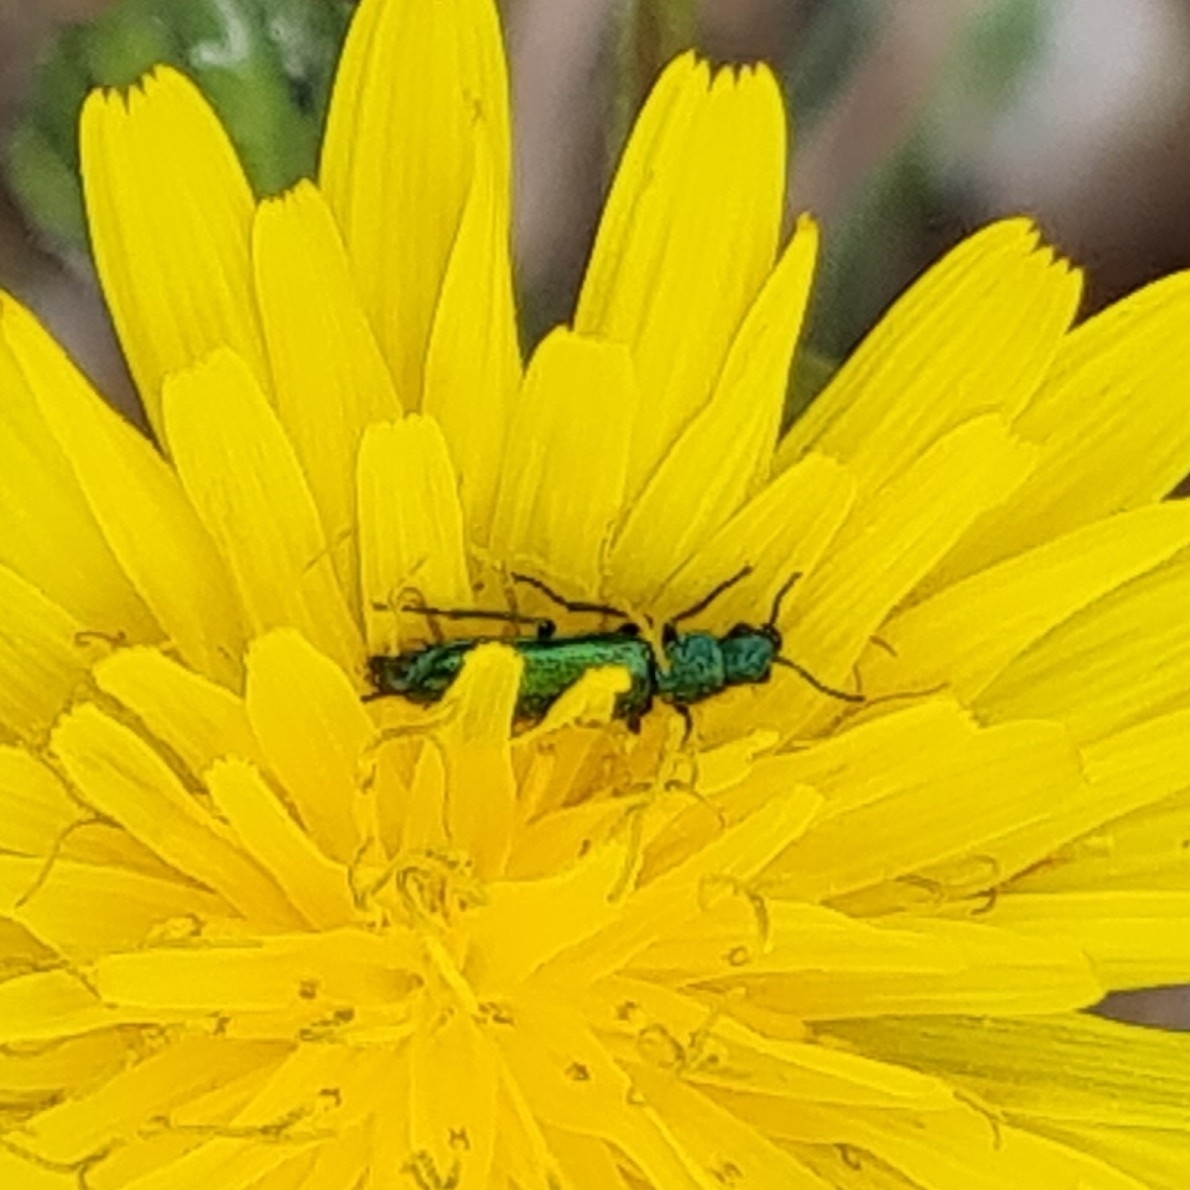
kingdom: Animalia
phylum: Arthropoda
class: Insecta
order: Coleoptera
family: Dasytidae
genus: Psilothrix
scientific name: Psilothrix viridicoerulea
